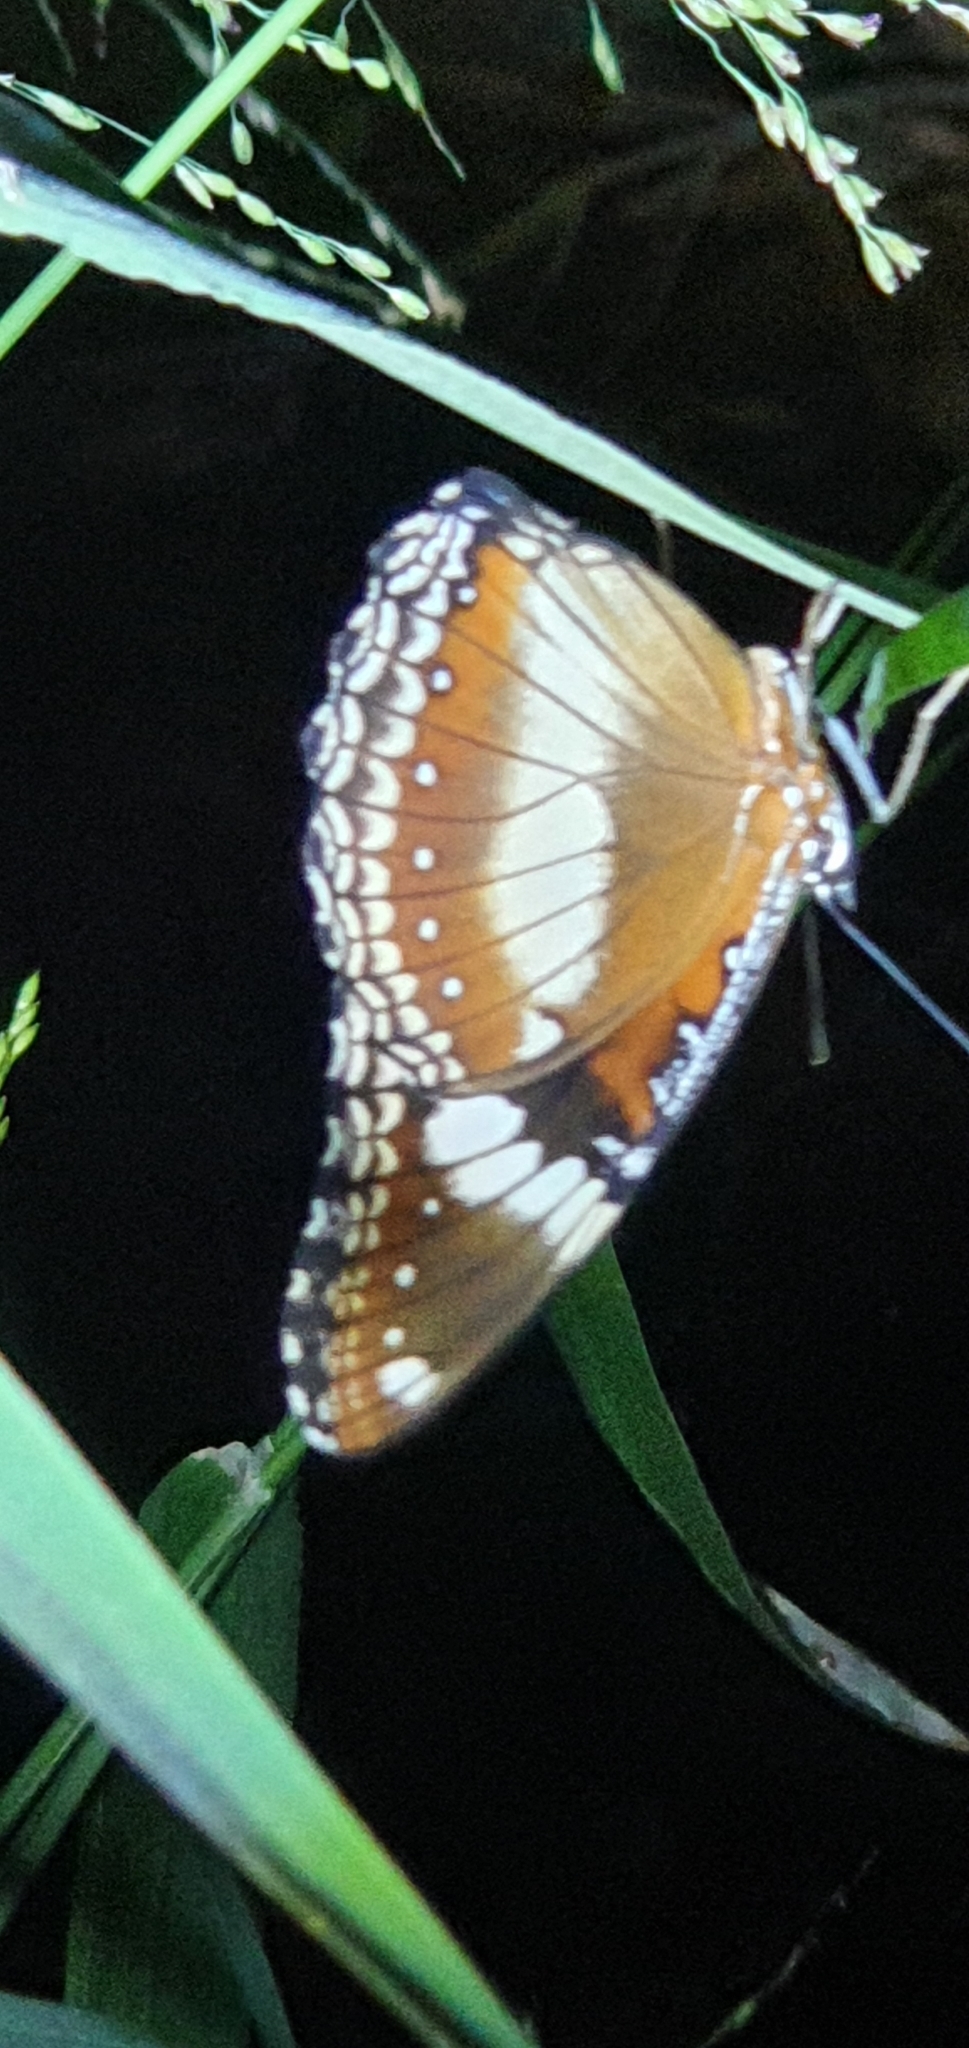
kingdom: Animalia
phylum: Arthropoda
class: Insecta
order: Lepidoptera
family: Nymphalidae
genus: Hypolimnas
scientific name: Hypolimnas bolina
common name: Great eggfly
